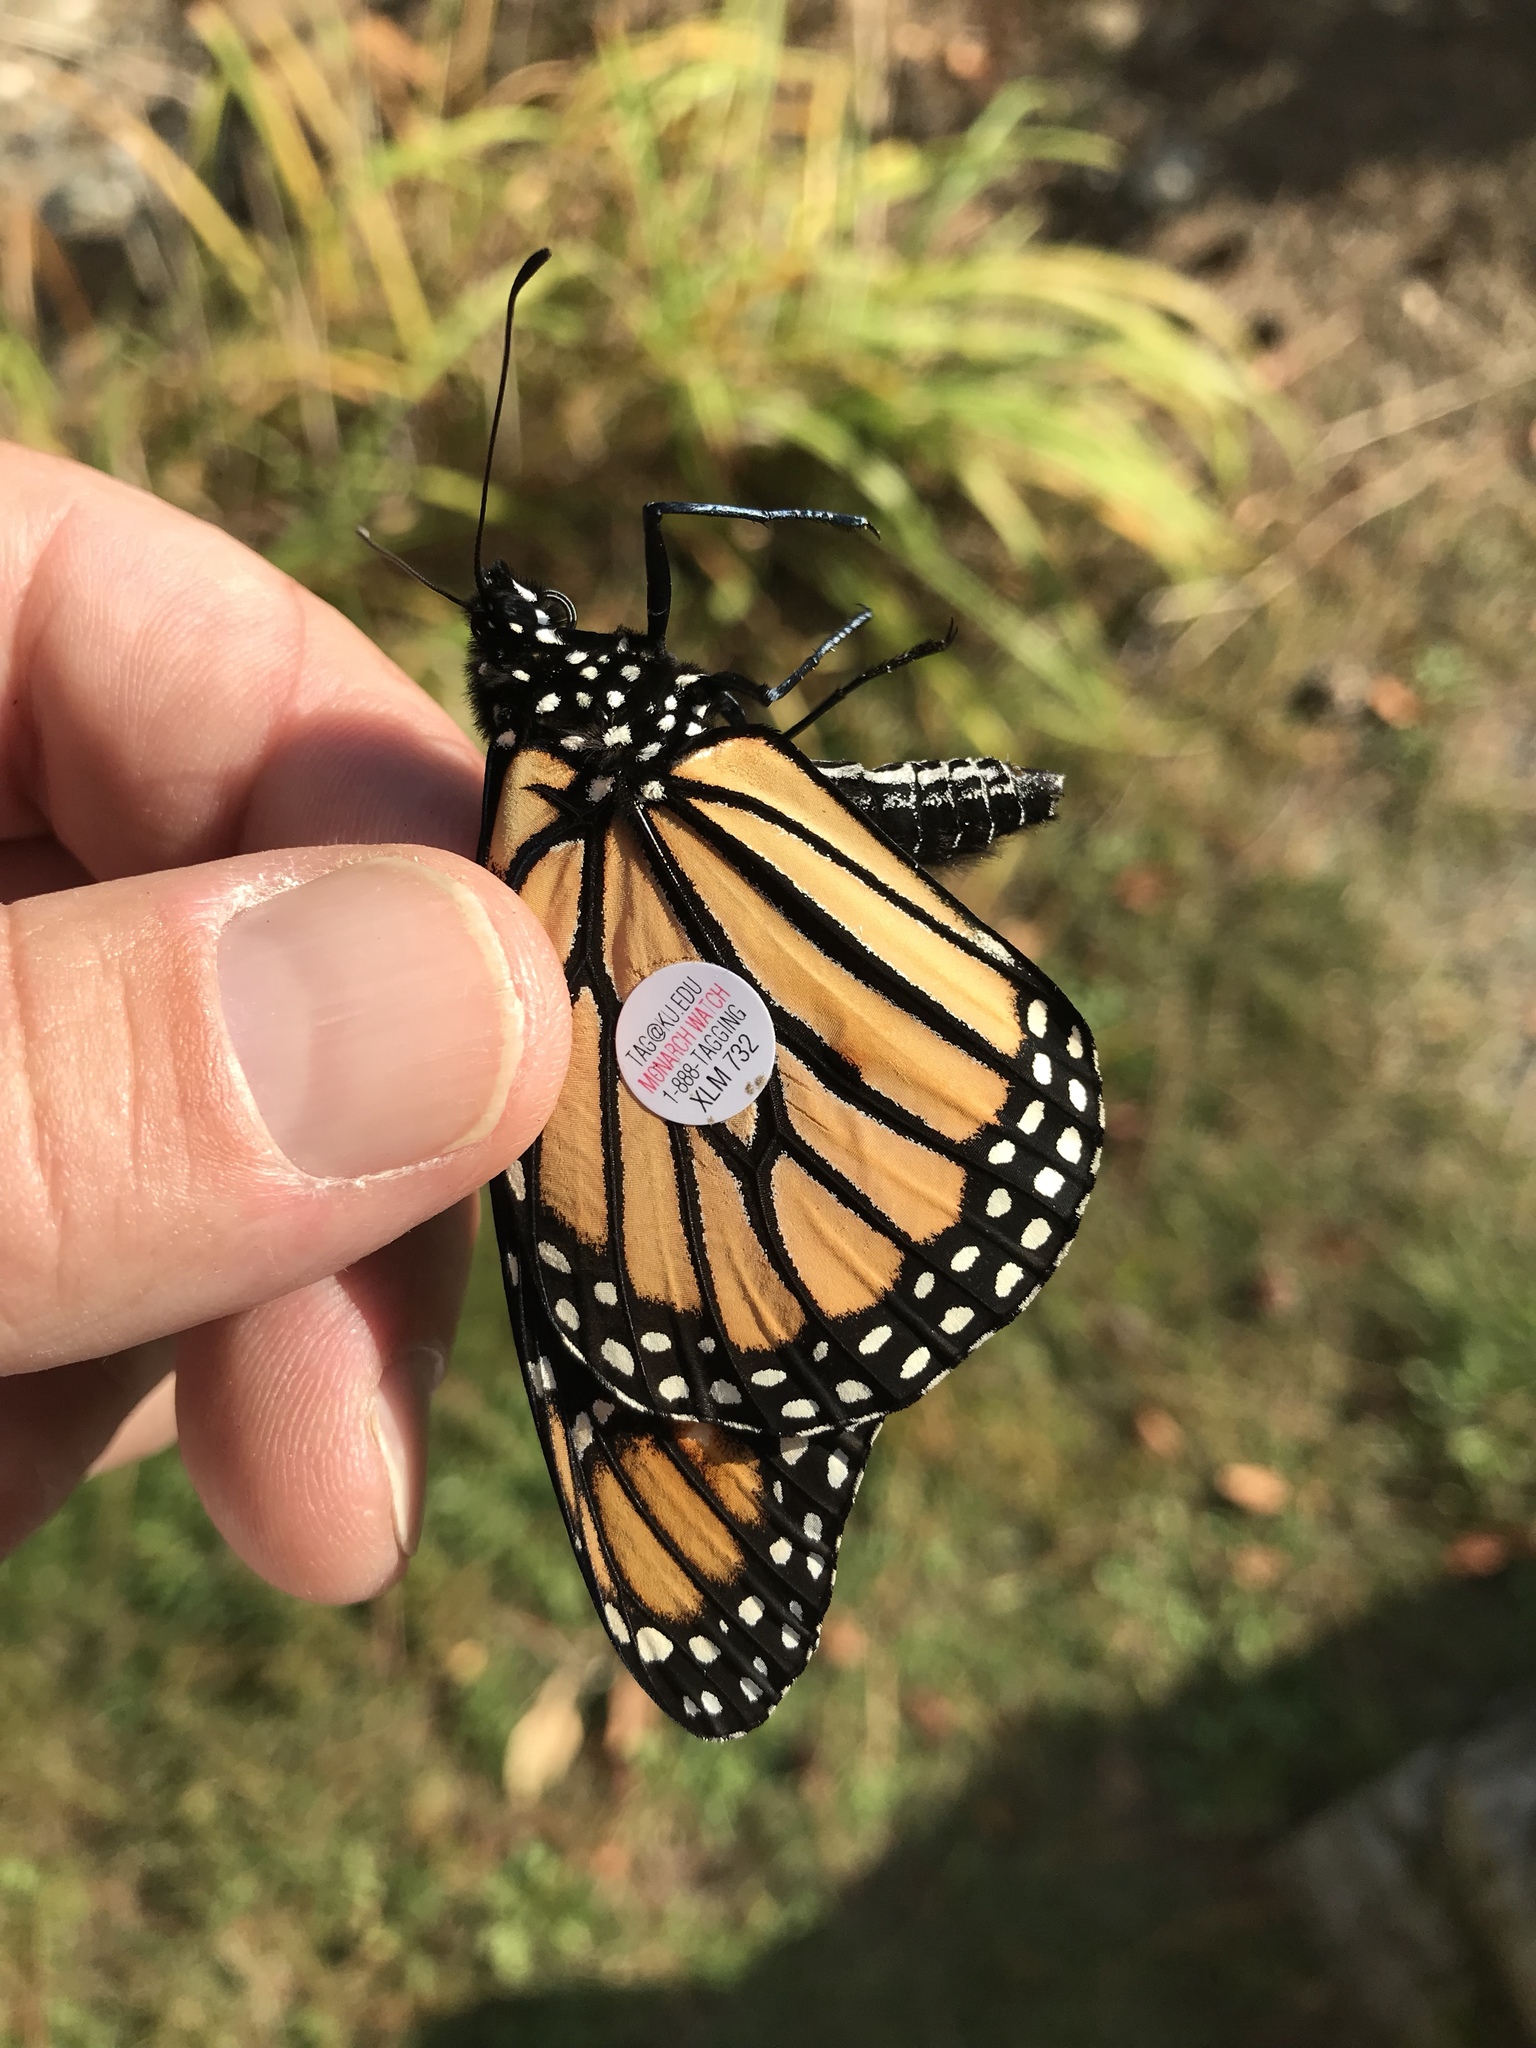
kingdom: Animalia
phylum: Arthropoda
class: Insecta
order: Lepidoptera
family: Nymphalidae
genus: Danaus
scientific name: Danaus plexippus
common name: Monarch
